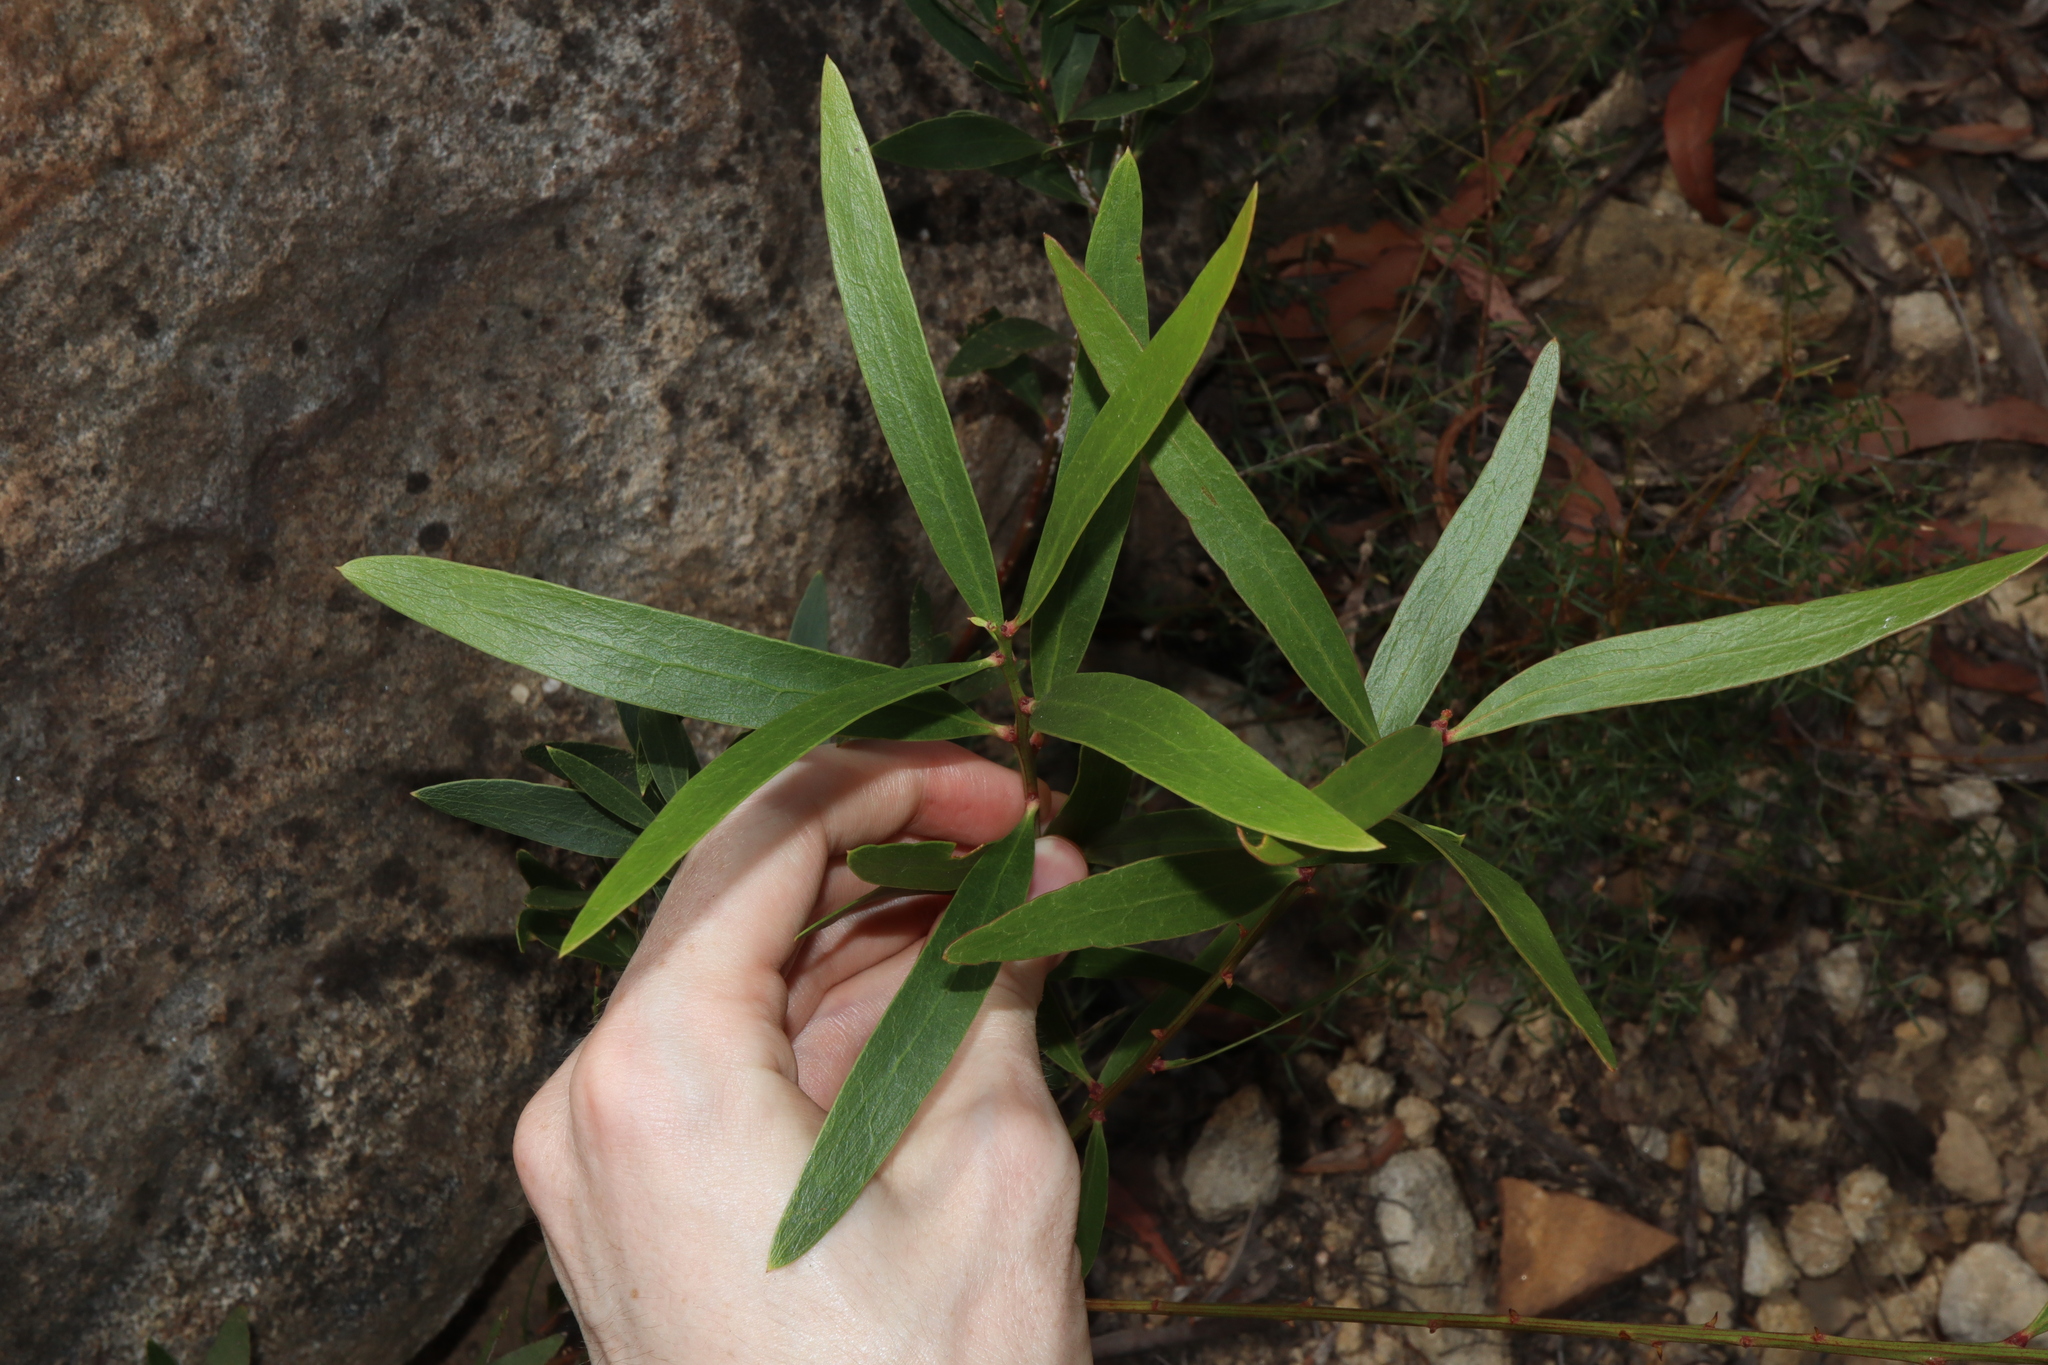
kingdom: Plantae
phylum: Tracheophyta
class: Magnoliopsida
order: Fabales
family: Fabaceae
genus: Daviesia
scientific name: Daviesia corymbosa
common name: Narrow-leaf bitter-pea
